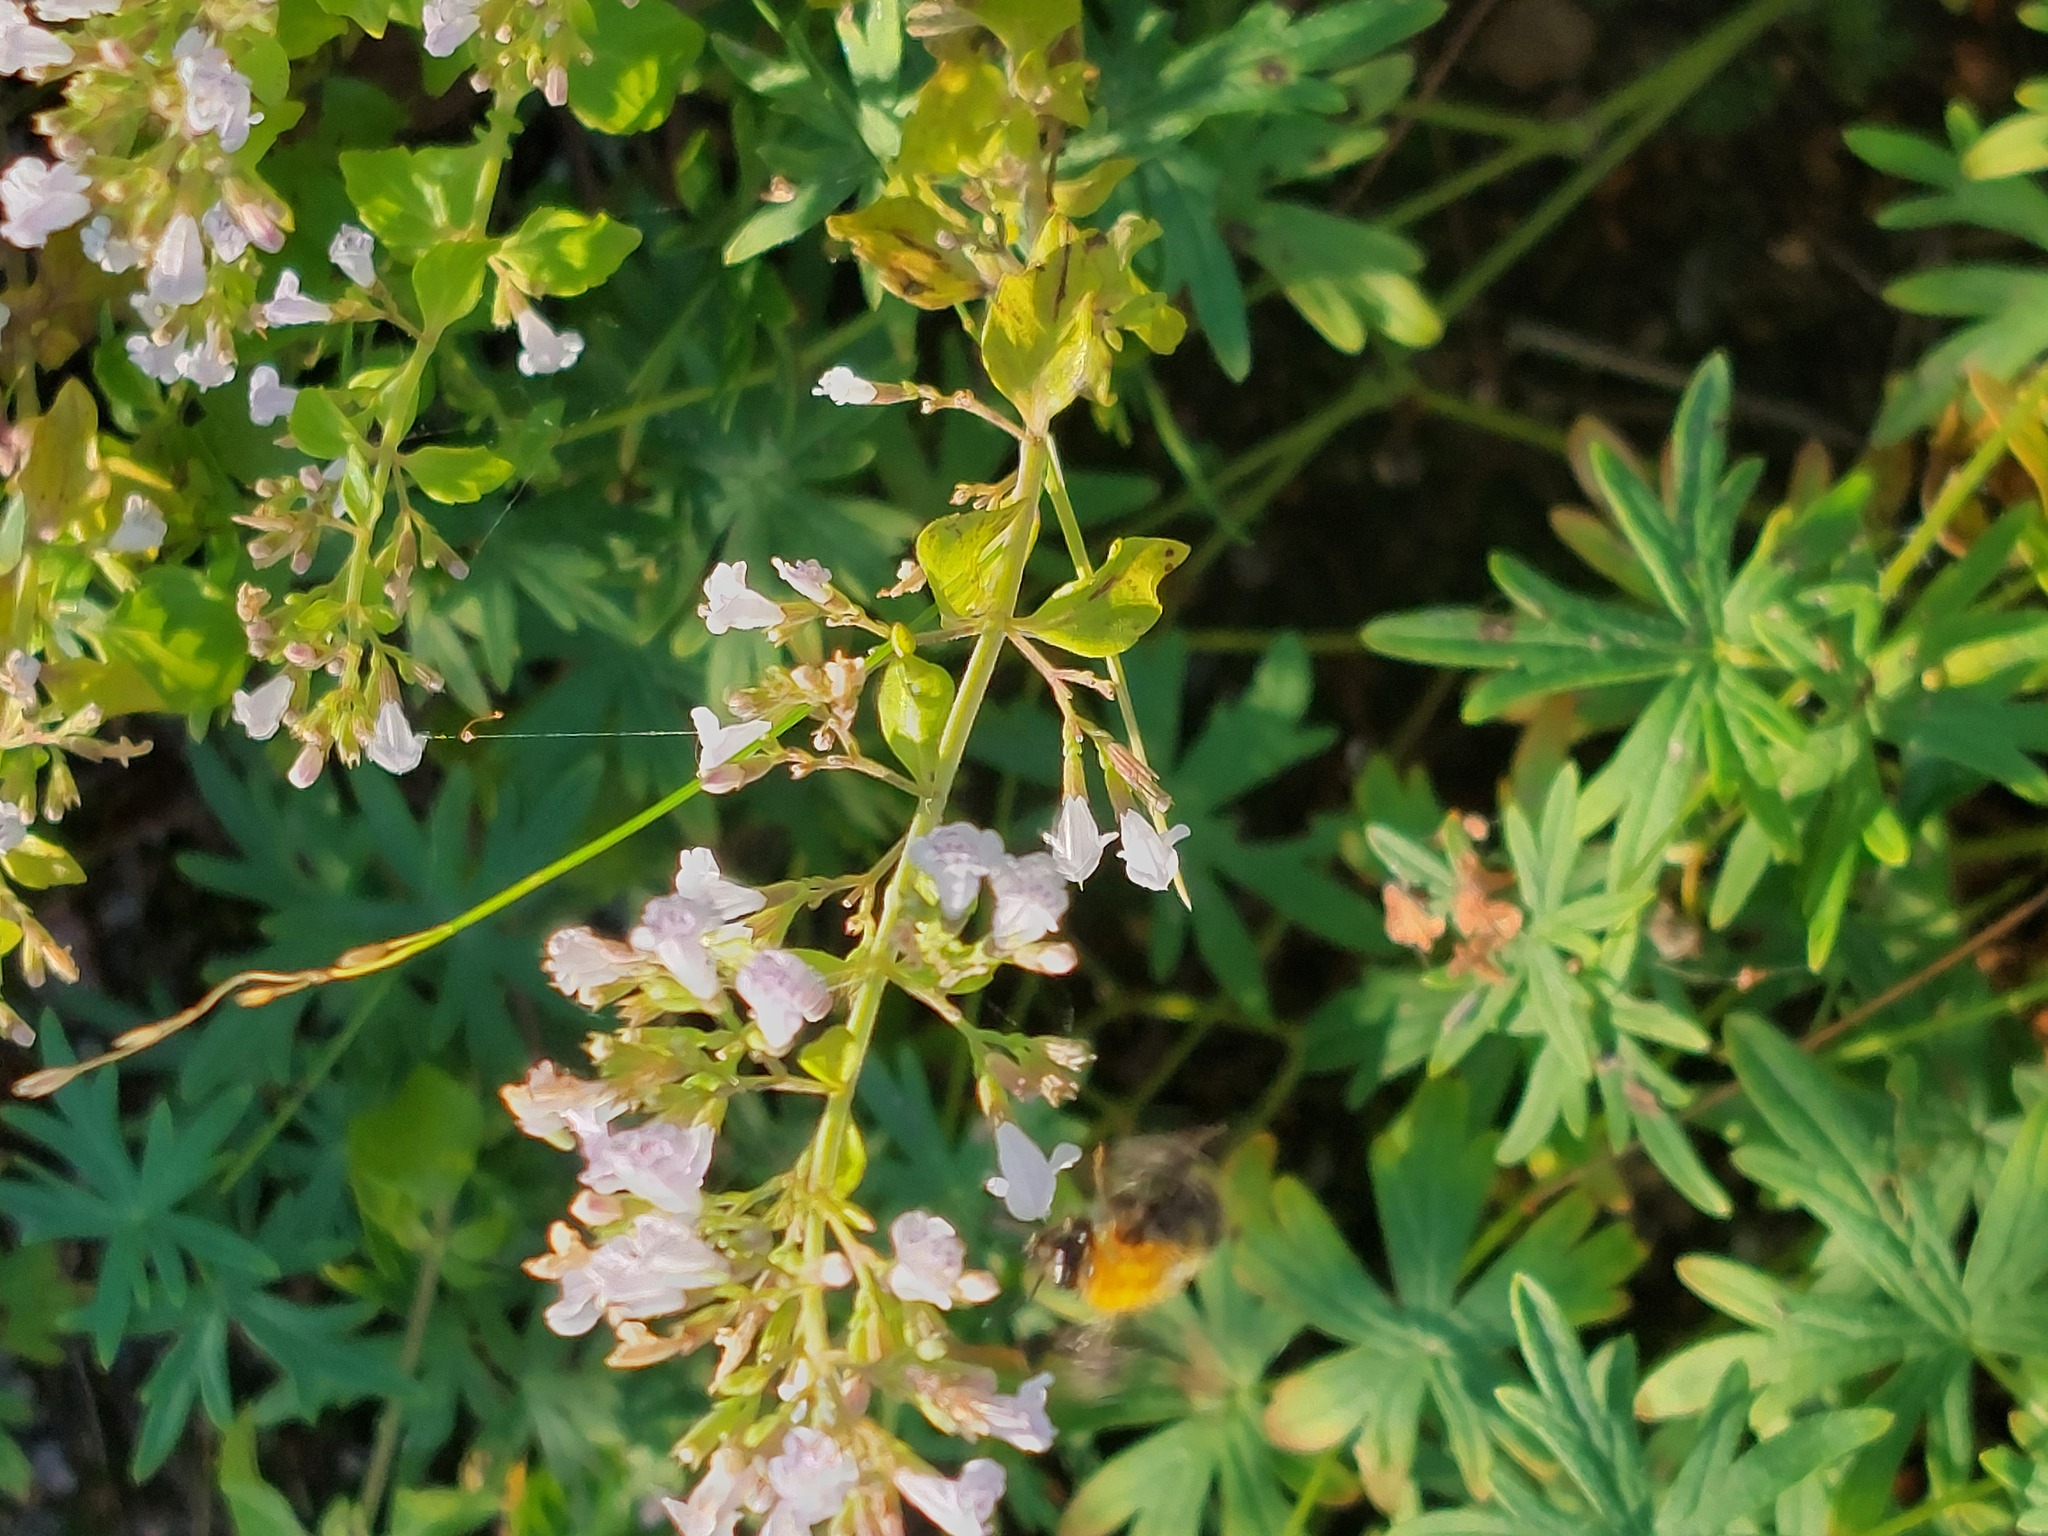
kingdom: Animalia
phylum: Arthropoda
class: Insecta
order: Hymenoptera
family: Apidae
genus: Bombus
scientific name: Bombus pascuorum
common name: Common carder bee
